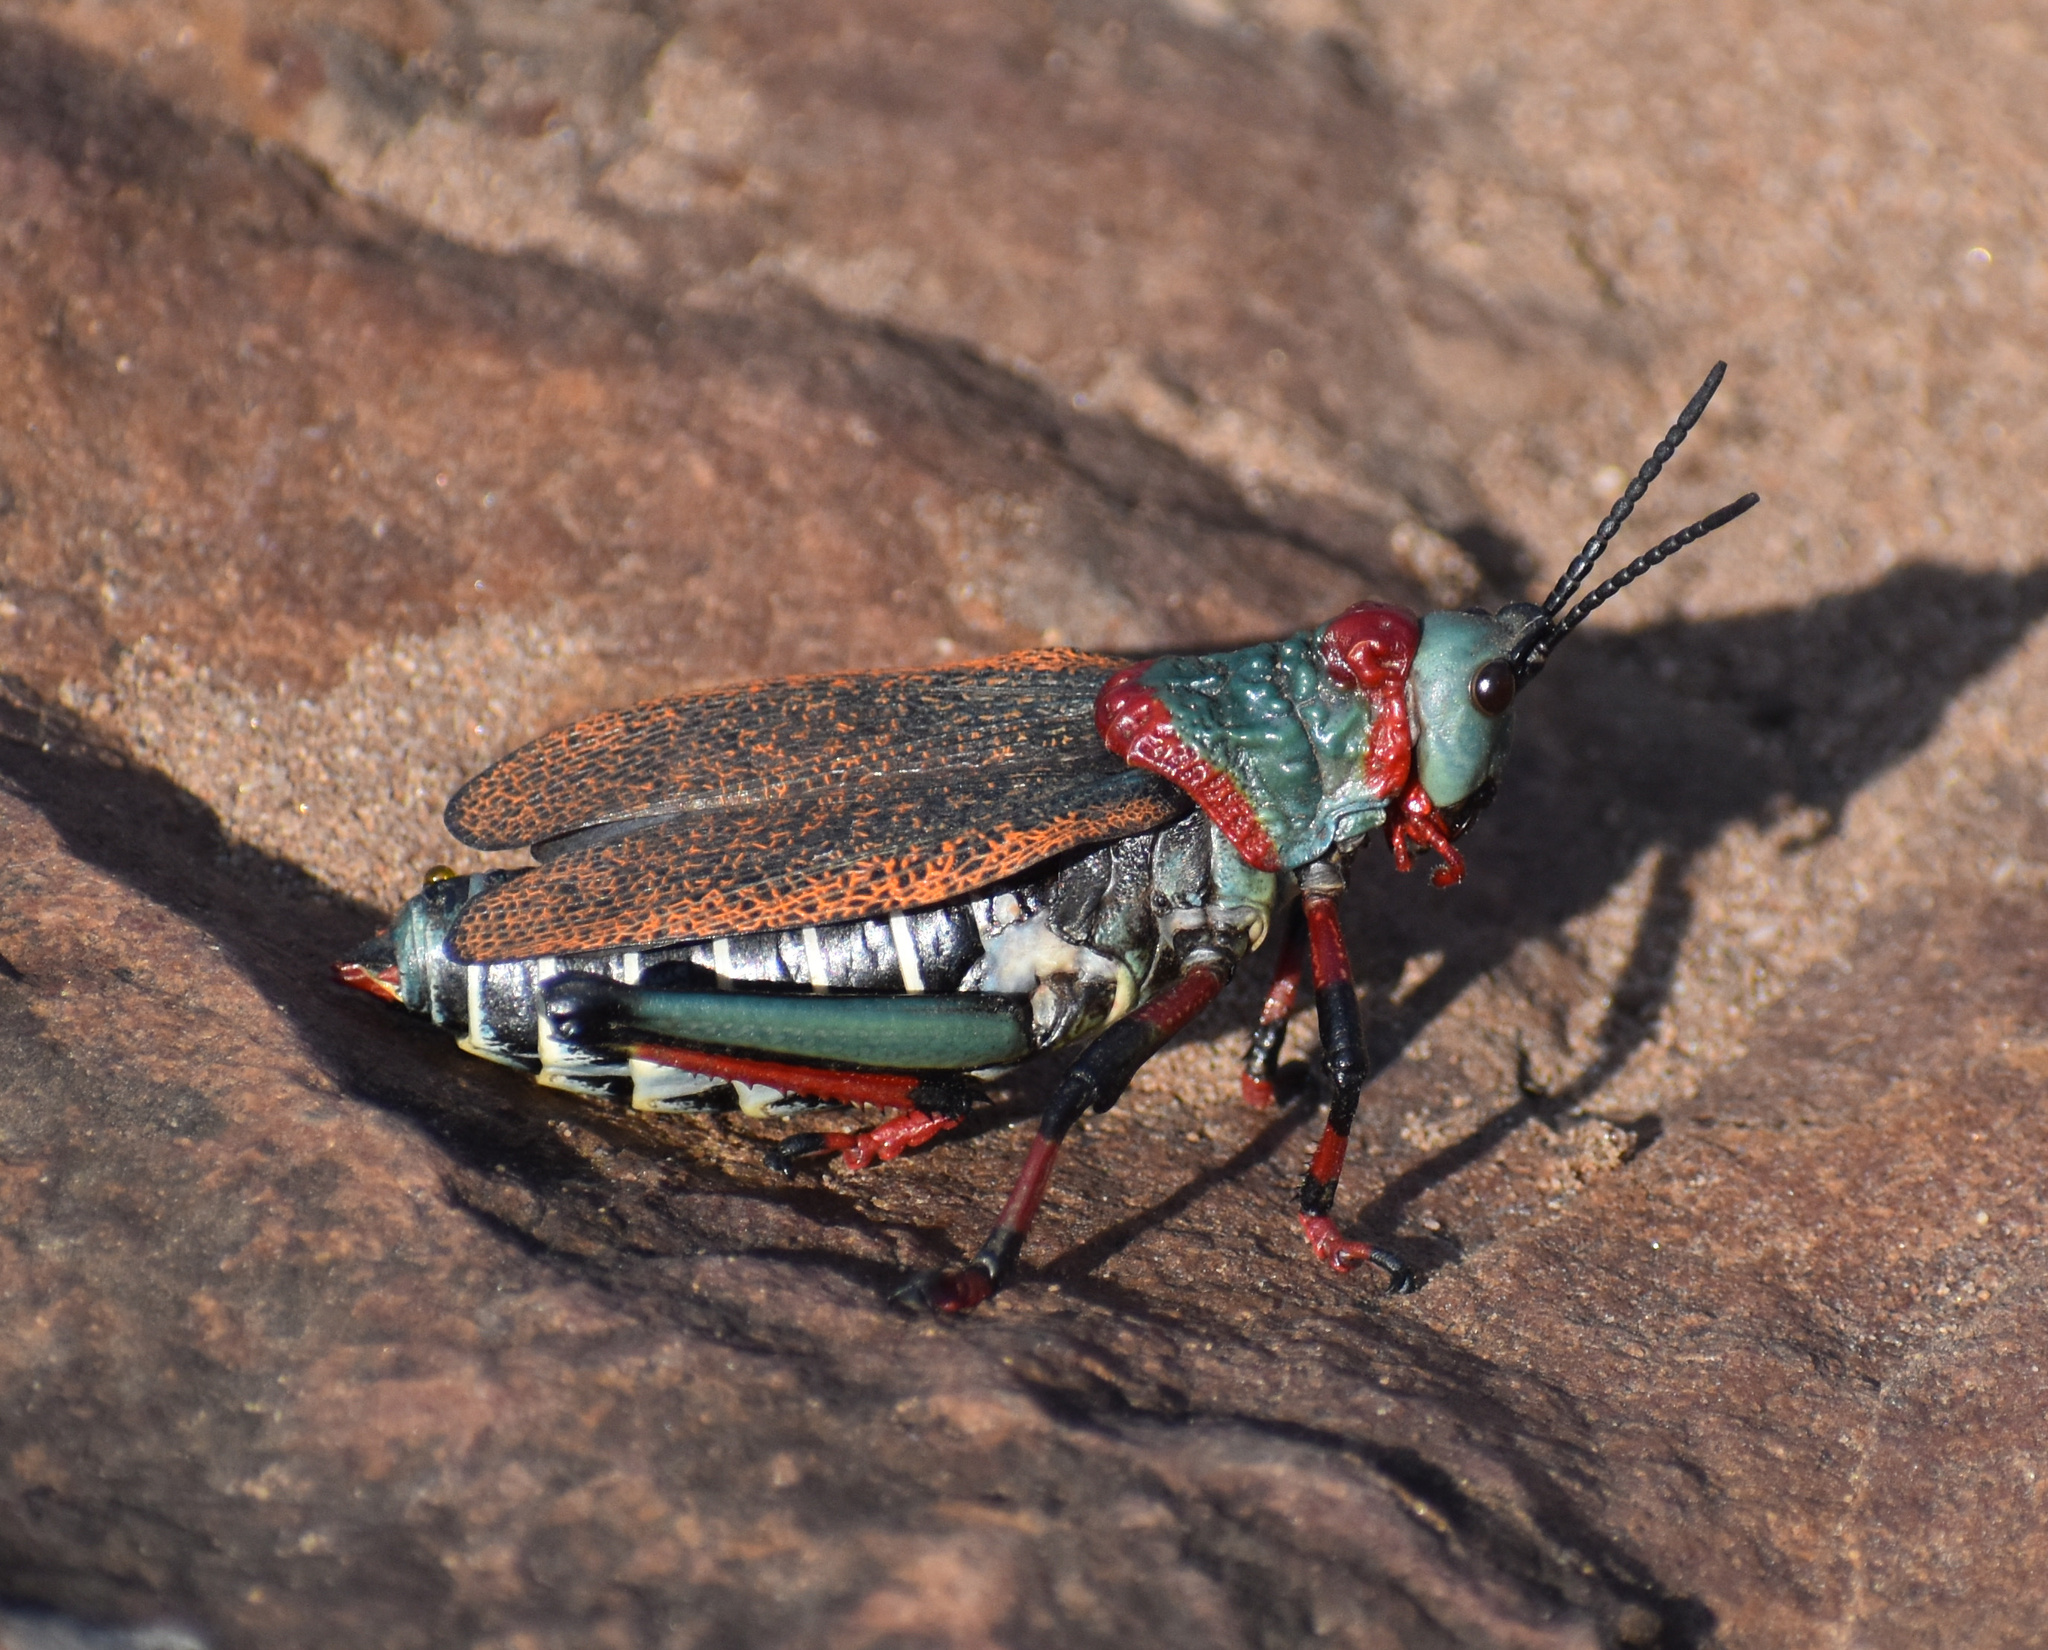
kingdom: Animalia
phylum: Arthropoda
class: Insecta
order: Orthoptera
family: Pyrgomorphidae
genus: Dictyophorus
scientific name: Dictyophorus spumans
